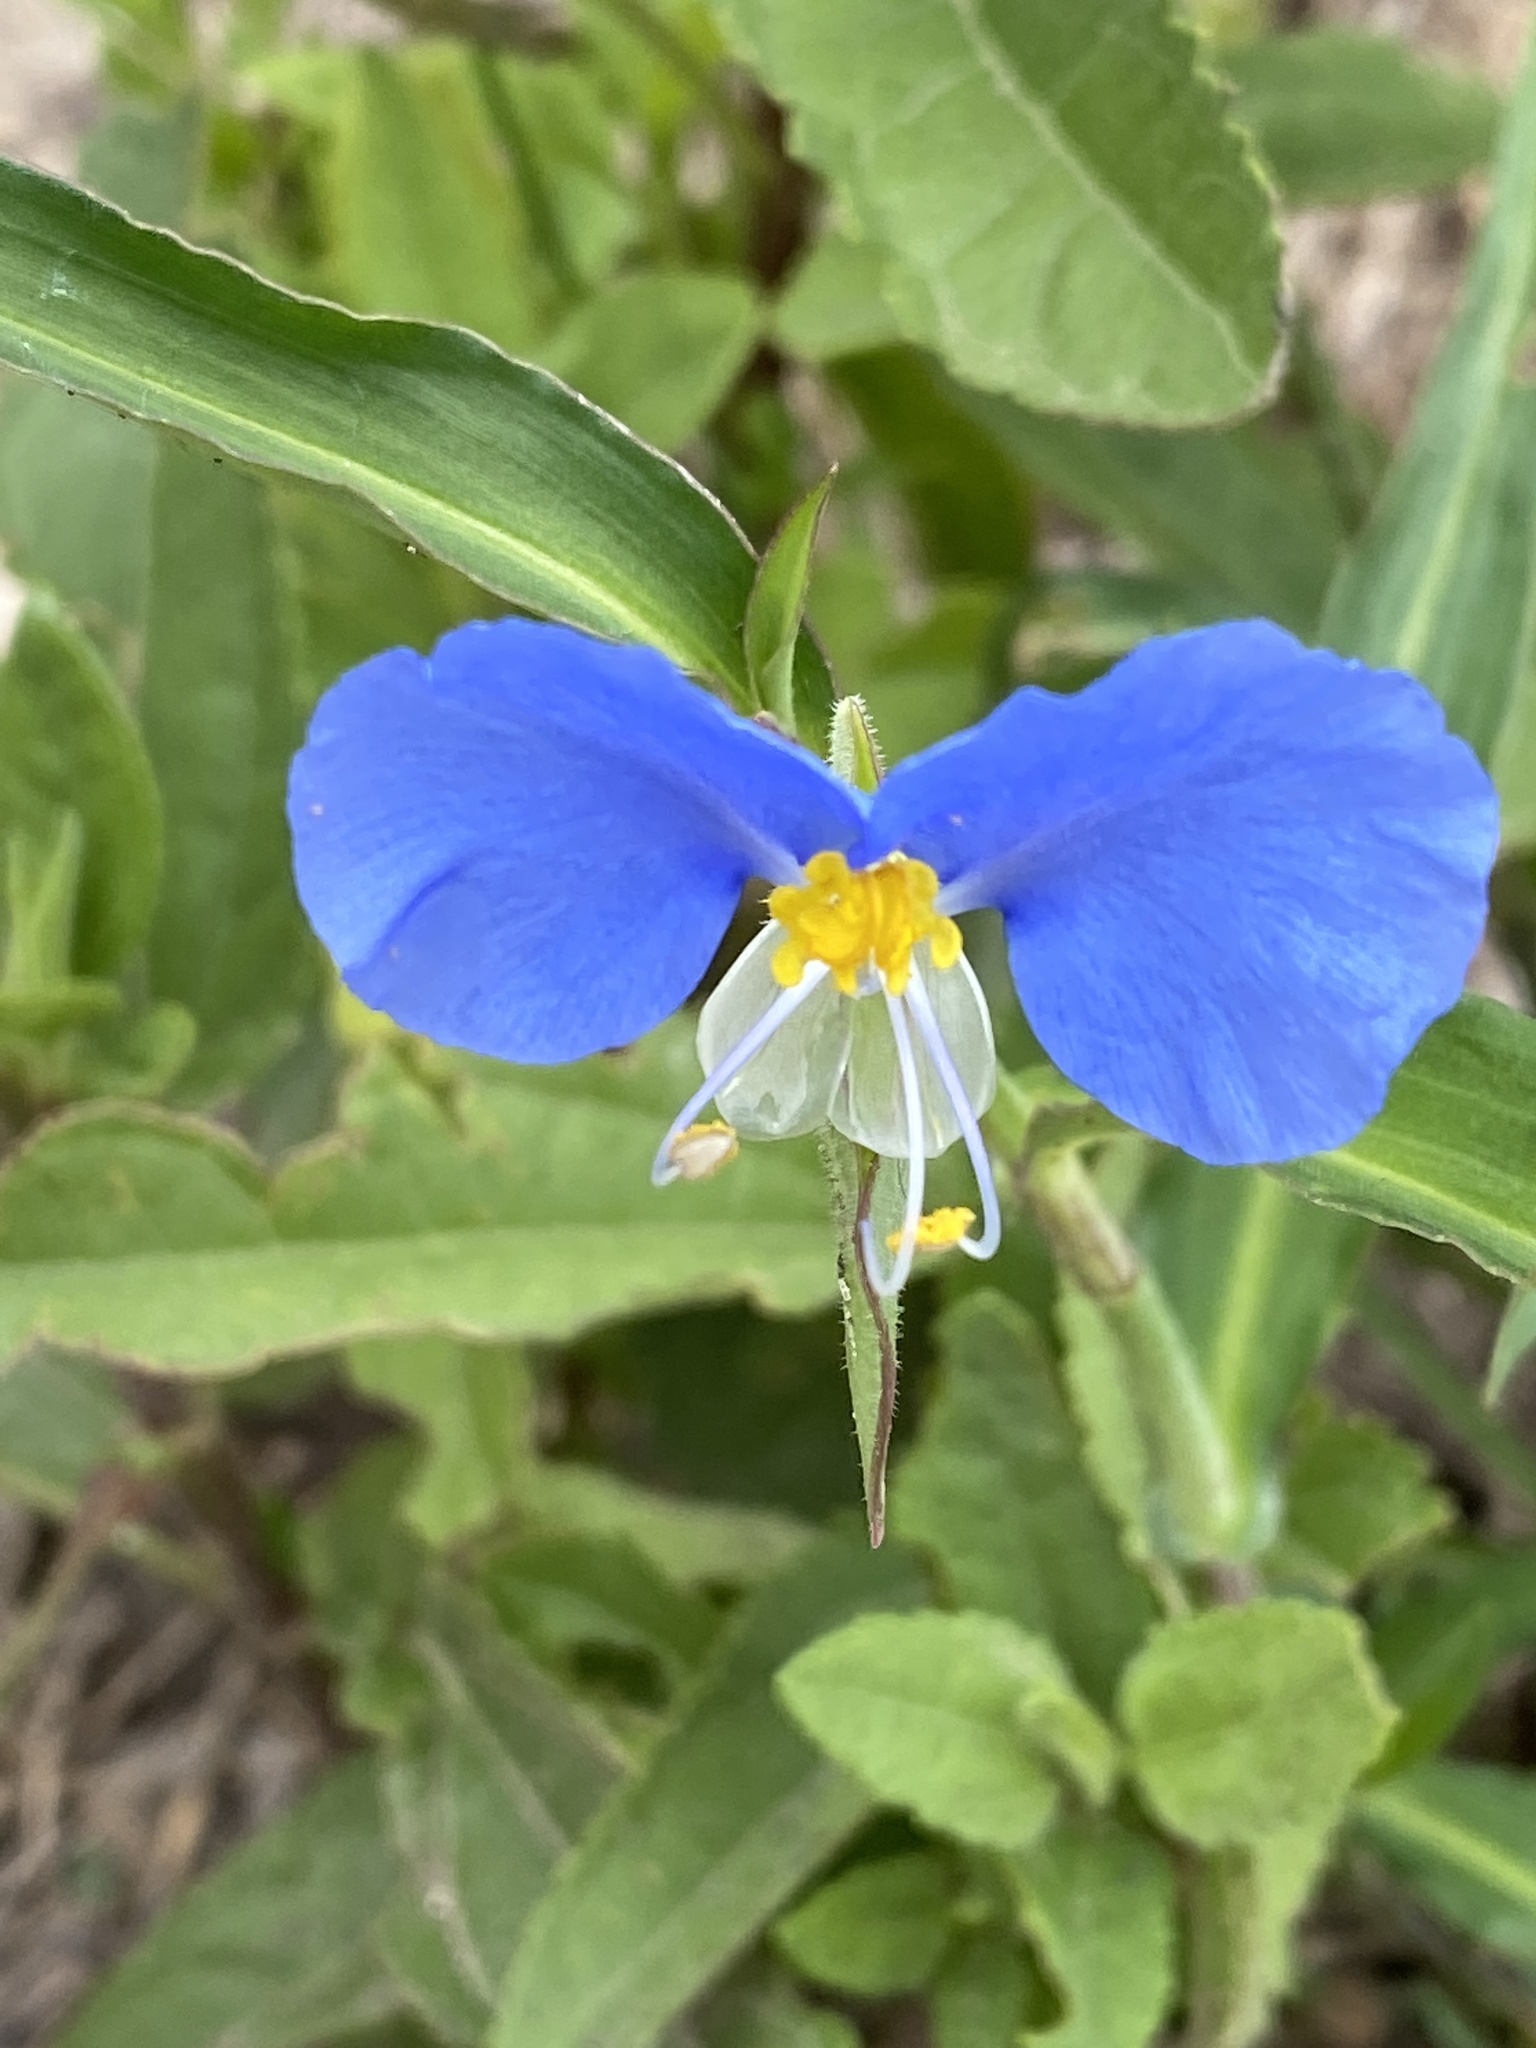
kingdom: Plantae
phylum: Tracheophyta
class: Liliopsida
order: Commelinales
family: Commelinaceae
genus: Commelina
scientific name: Commelina erecta
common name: Blousel blommetjie
